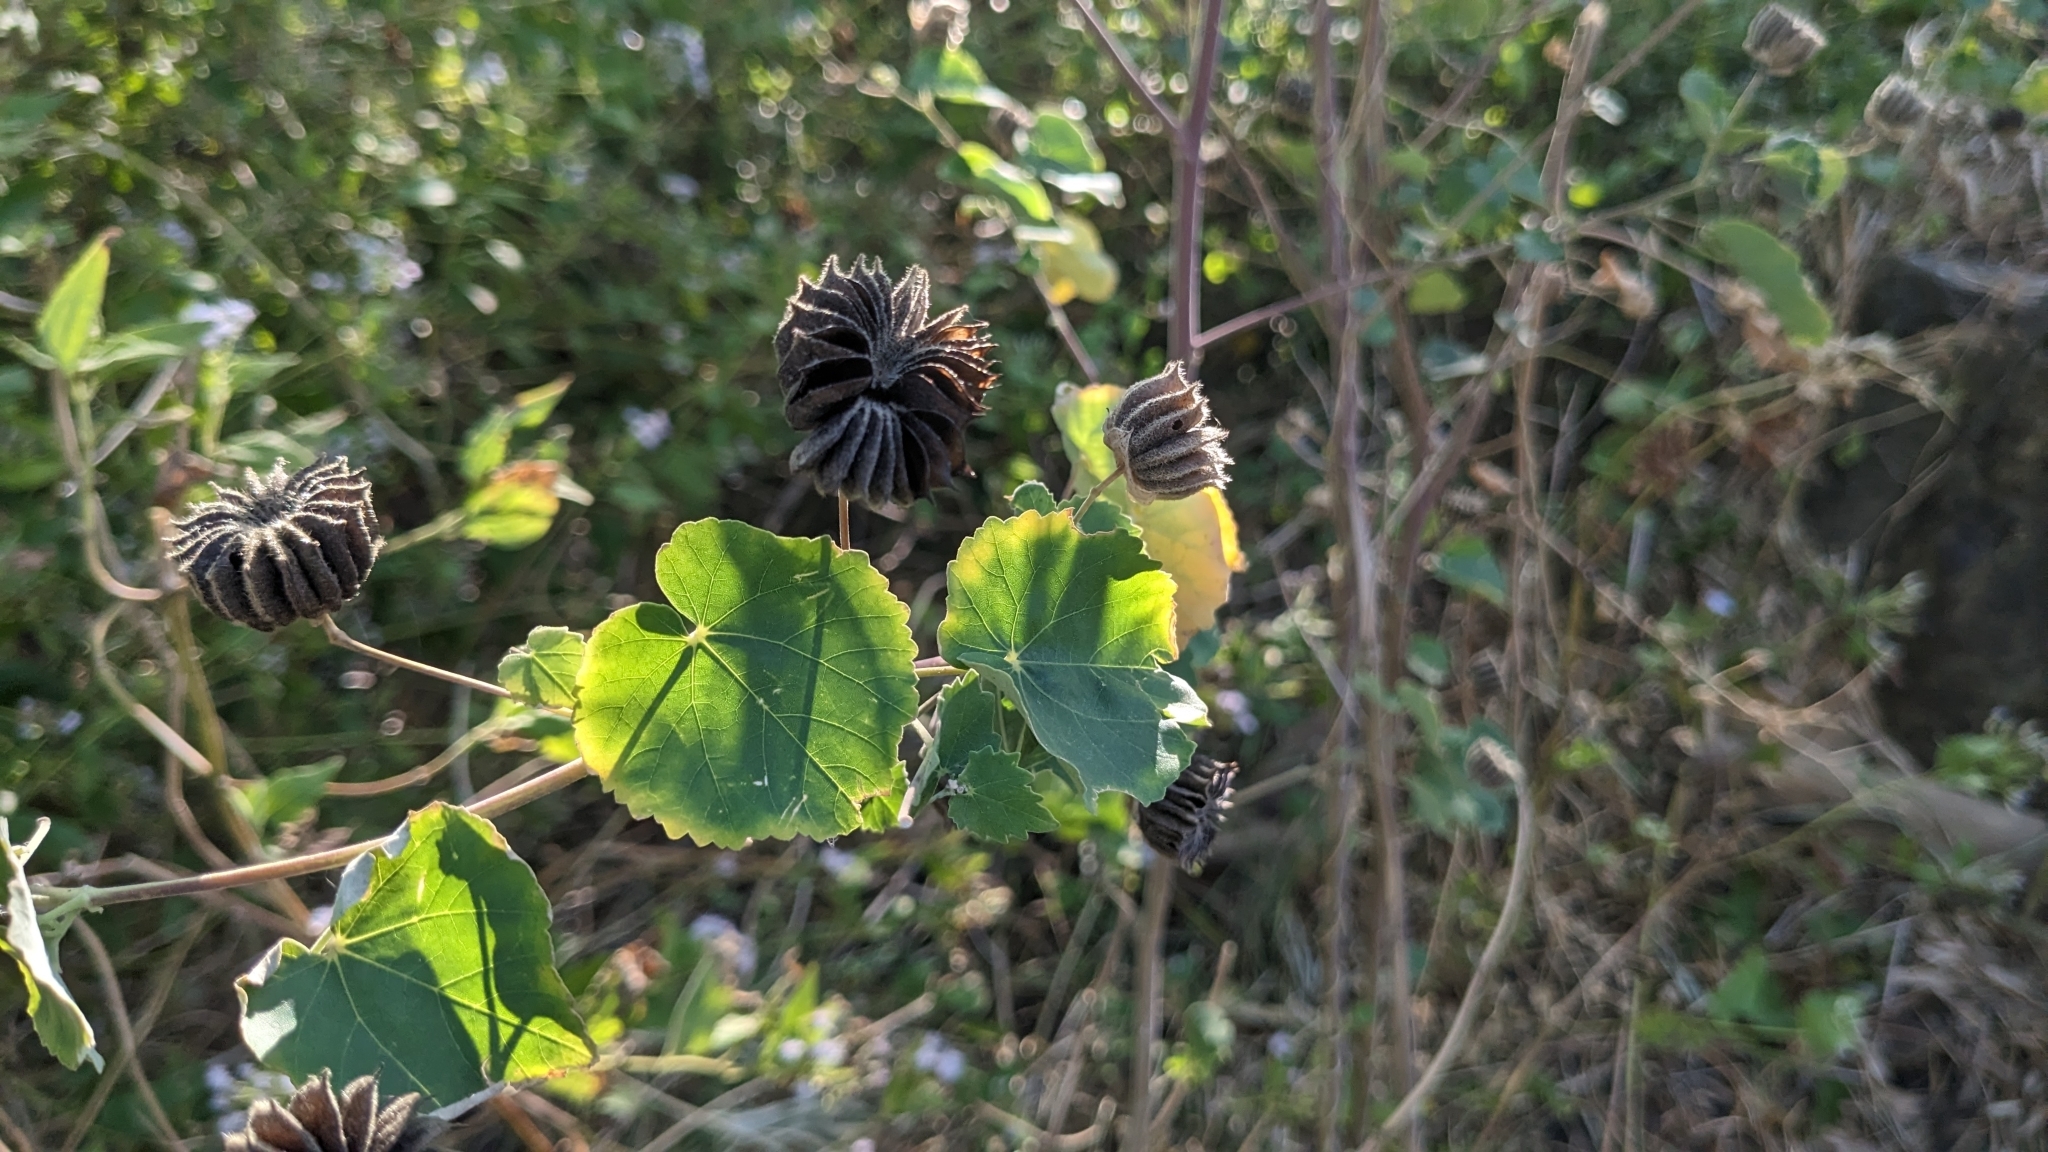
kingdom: Plantae
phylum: Tracheophyta
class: Magnoliopsida
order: Malvales
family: Malvaceae
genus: Abutilon
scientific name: Abutilon indicum
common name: Indian abutilon
